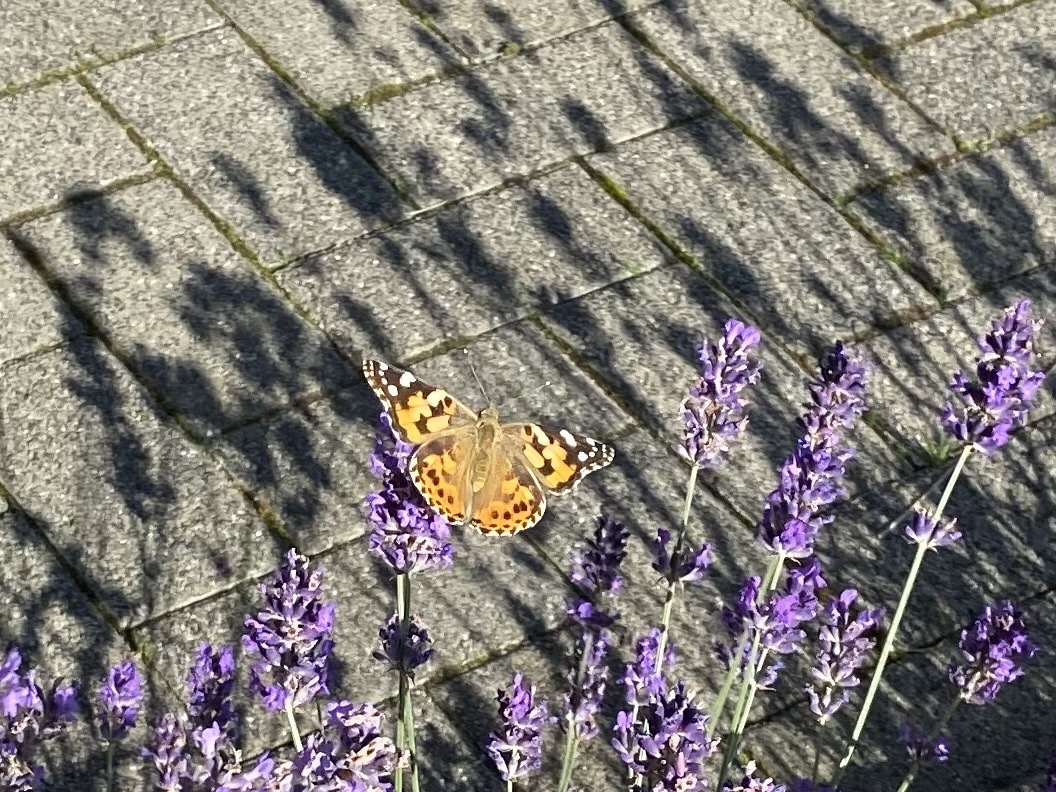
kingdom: Animalia
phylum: Arthropoda
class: Insecta
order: Lepidoptera
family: Nymphalidae
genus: Vanessa
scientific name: Vanessa cardui
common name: Painted lady
